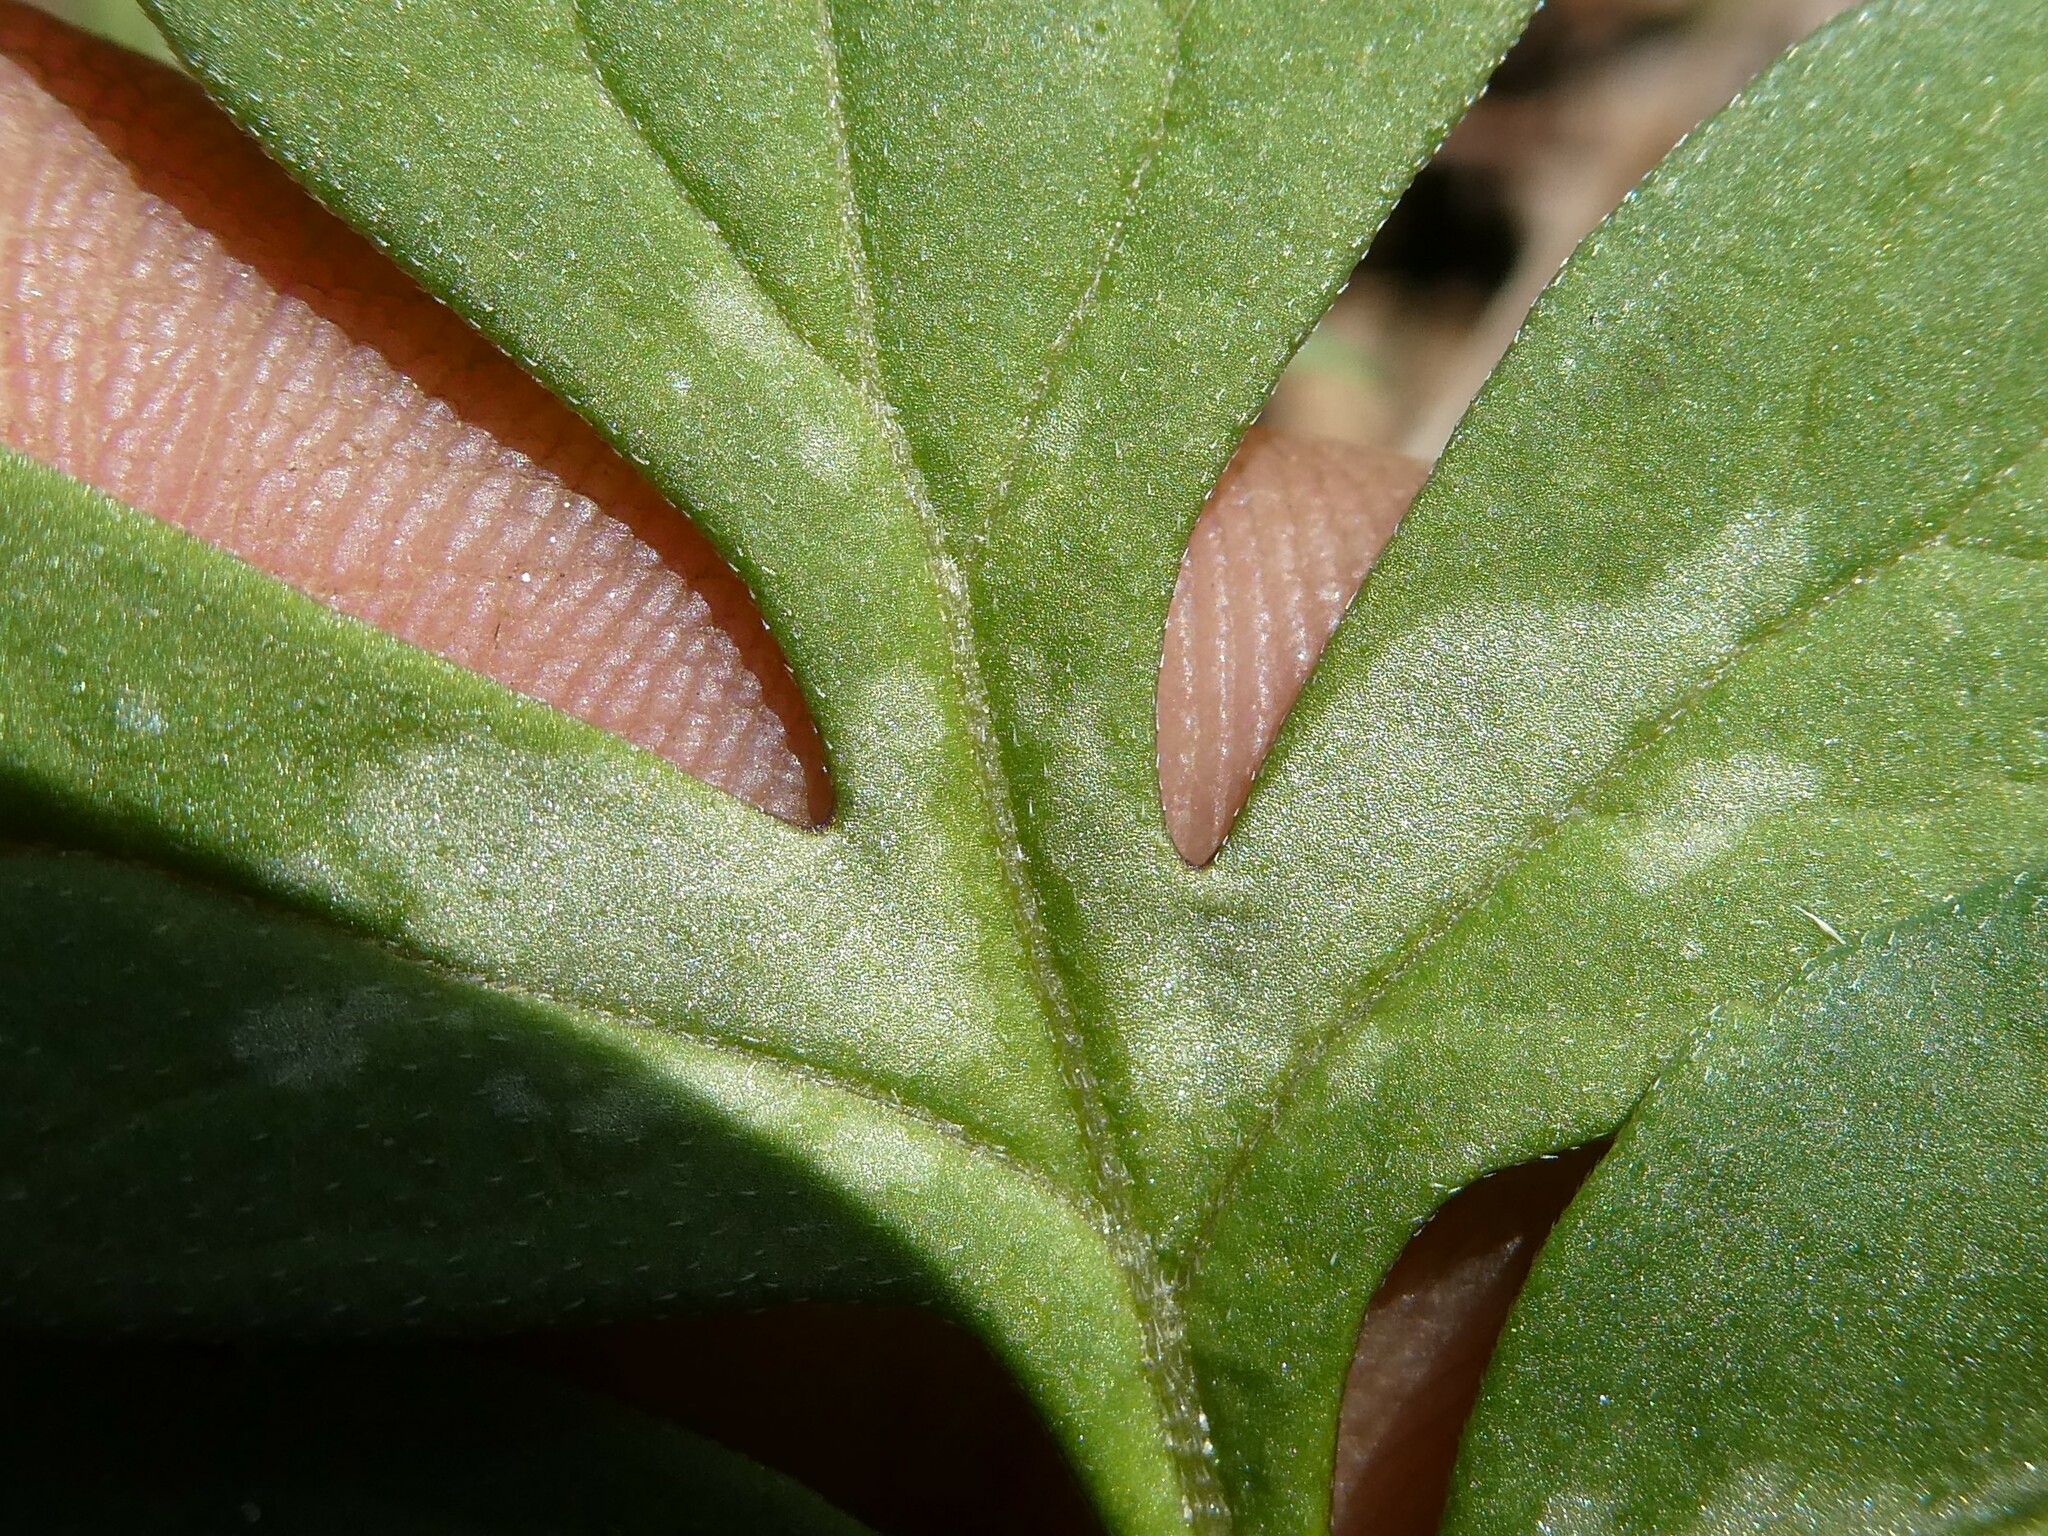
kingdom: Plantae
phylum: Tracheophyta
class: Magnoliopsida
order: Boraginales
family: Hydrophyllaceae
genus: Hydrophyllum
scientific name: Hydrophyllum virginianum
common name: Virginia waterleaf
